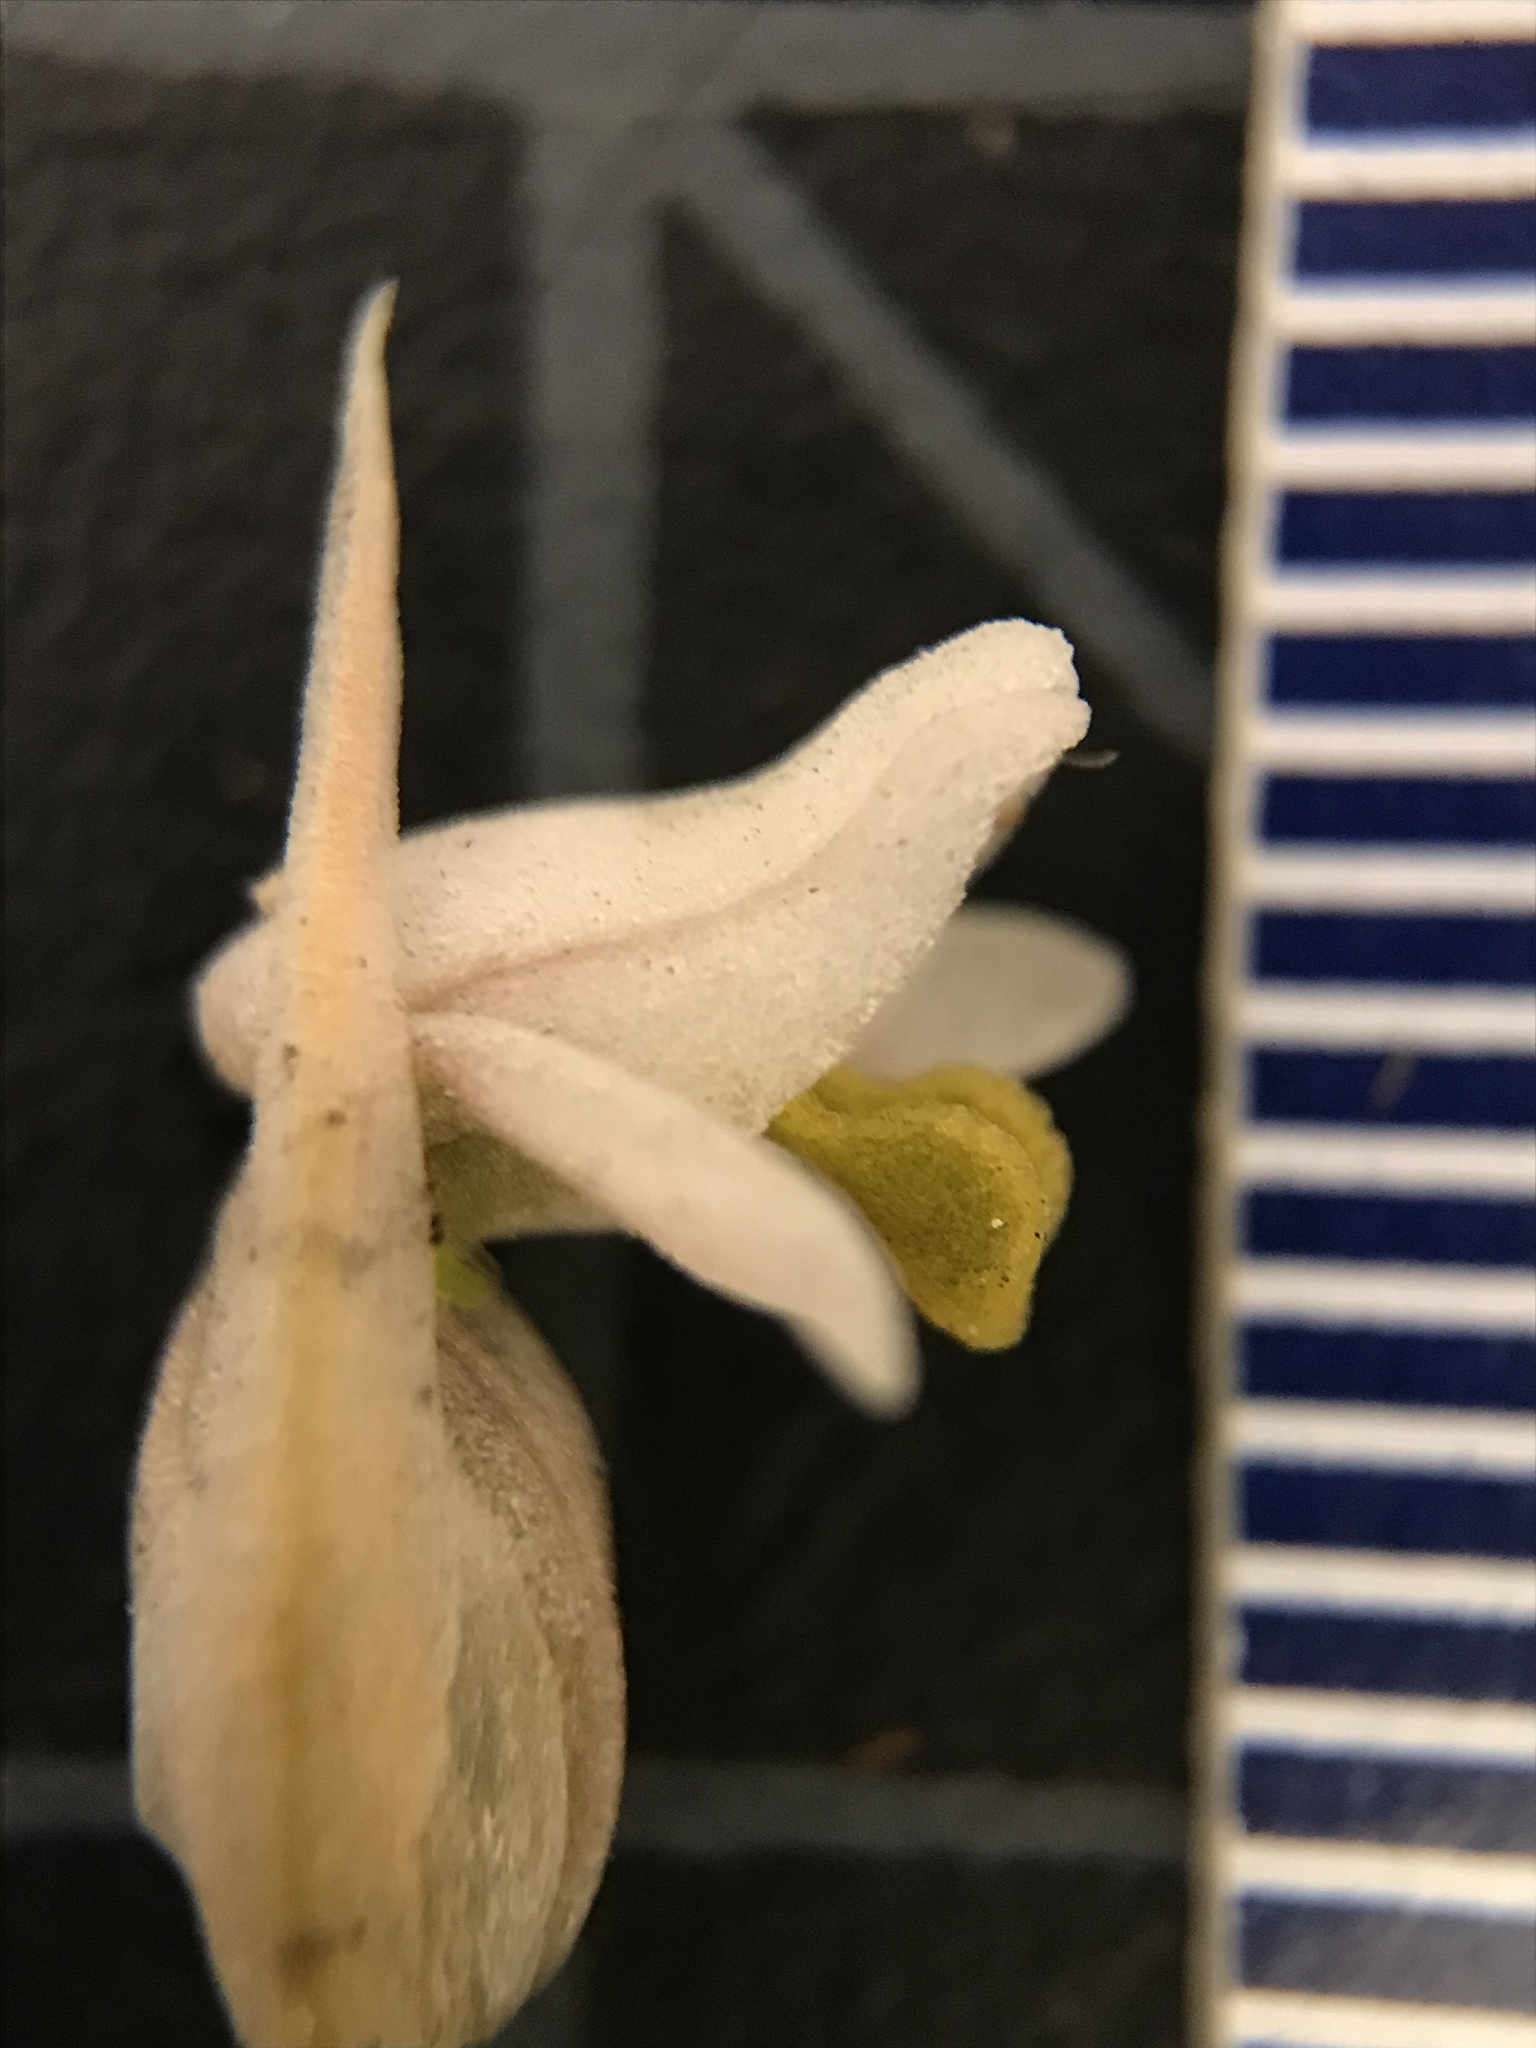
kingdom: Plantae
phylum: Tracheophyta
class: Liliopsida
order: Asparagales
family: Orchidaceae
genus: Zeuxine
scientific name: Zeuxine strateumatica
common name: Soldier's orchid
